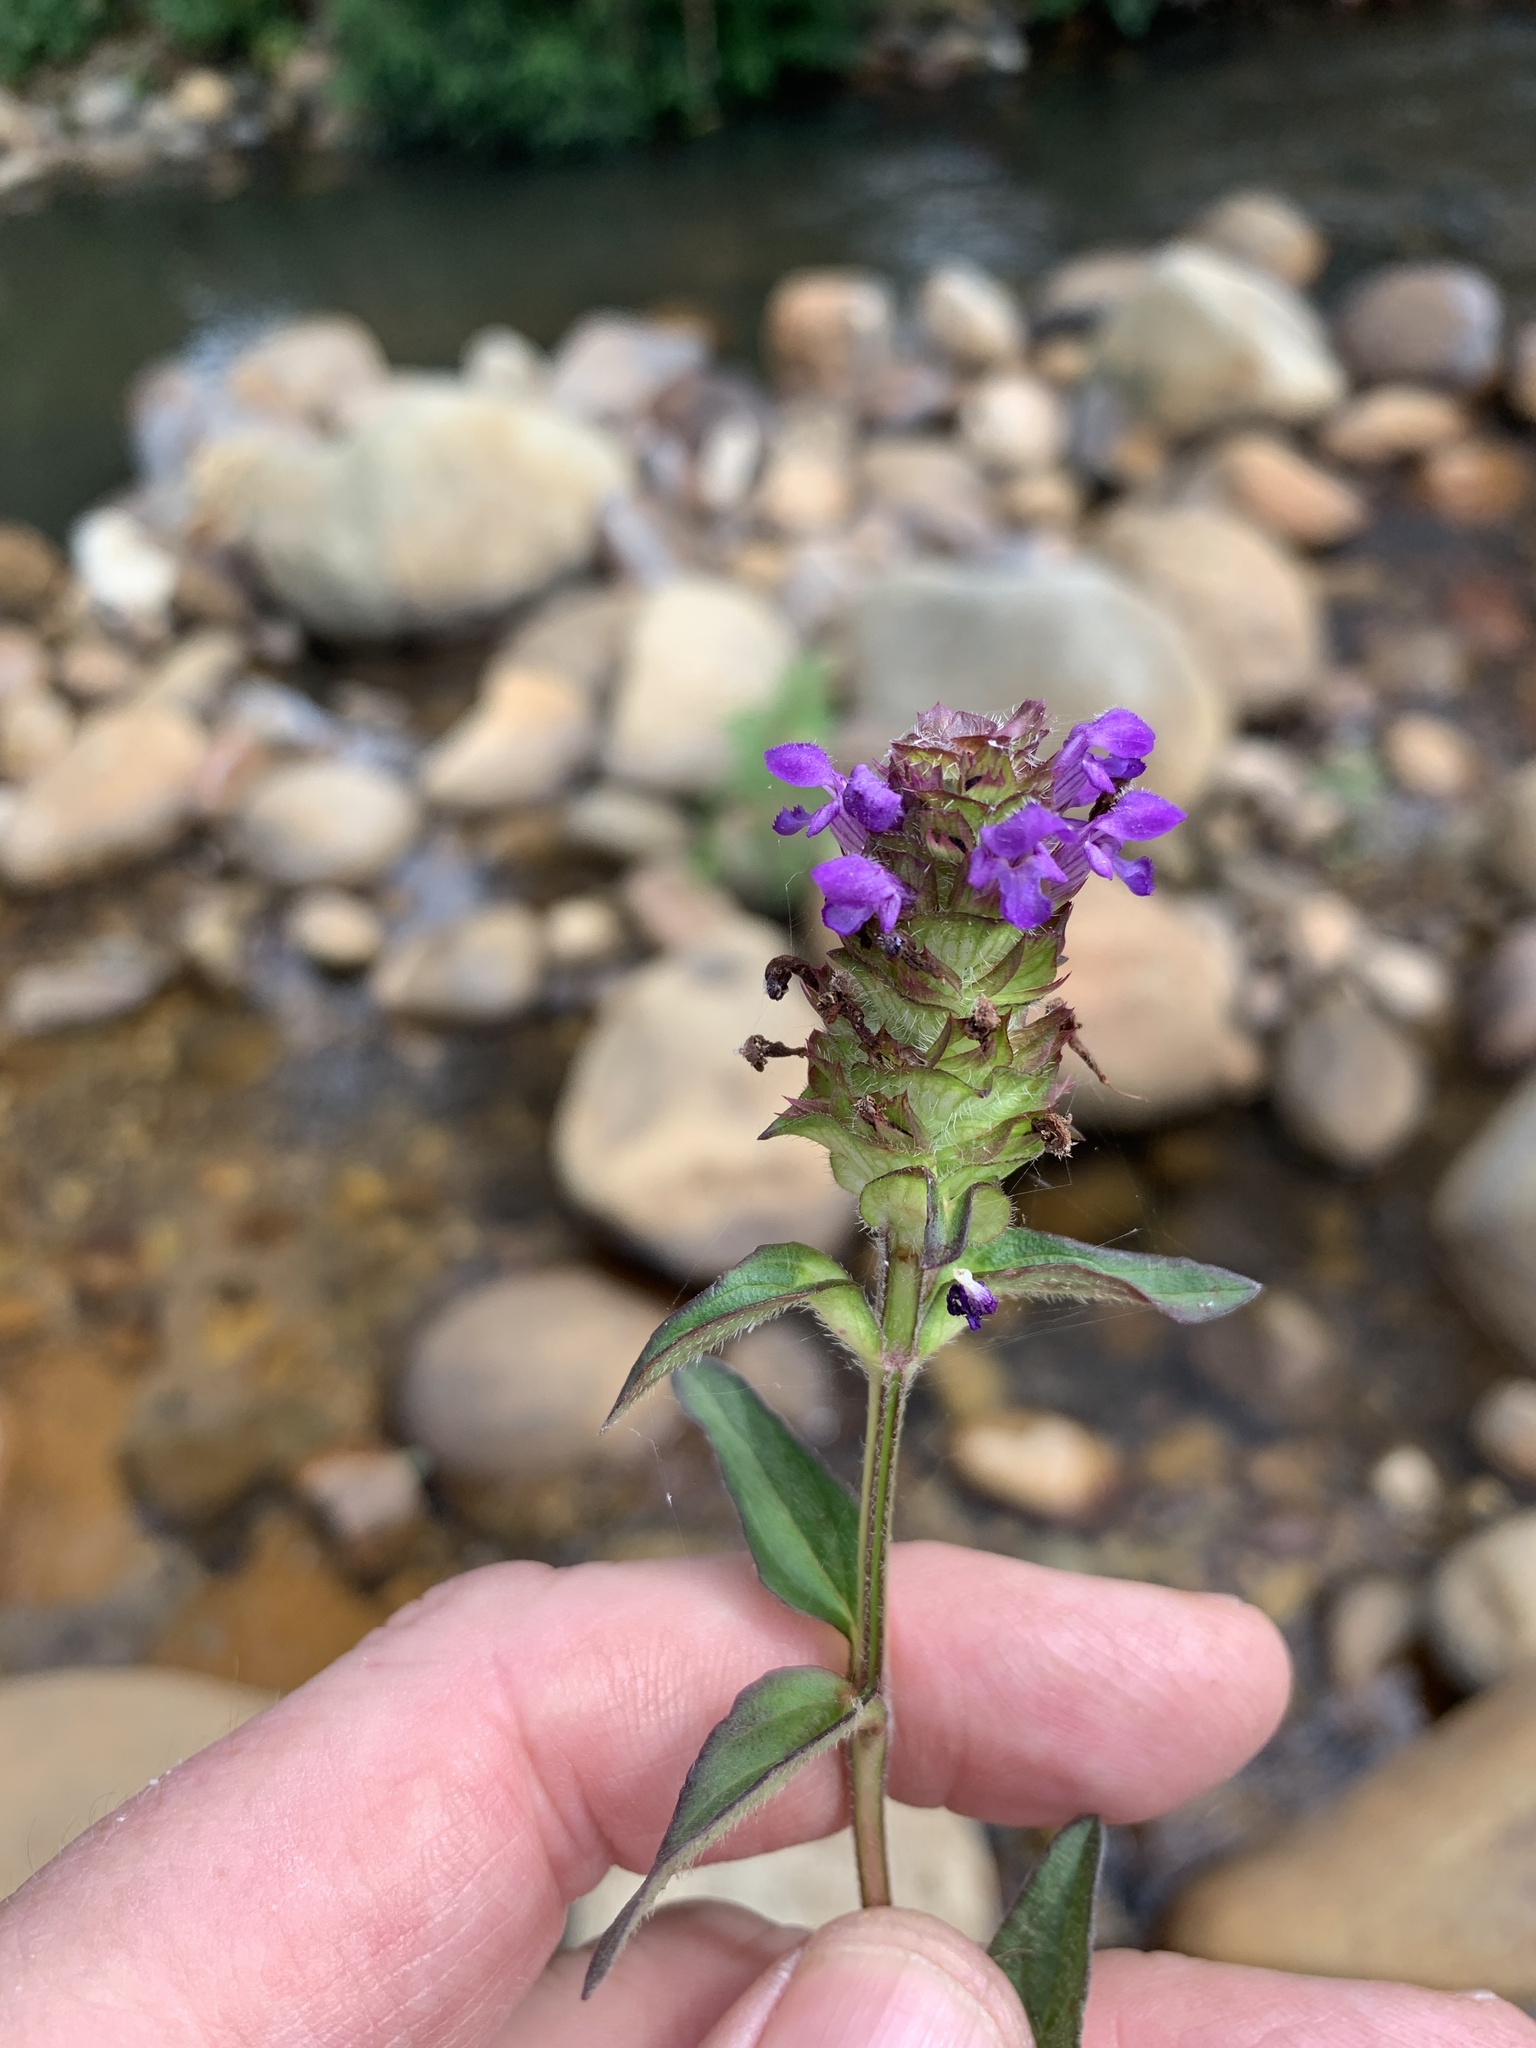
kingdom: Plantae
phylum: Tracheophyta
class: Magnoliopsida
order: Lamiales
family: Lamiaceae
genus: Prunella
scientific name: Prunella vulgaris
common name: Heal-all
